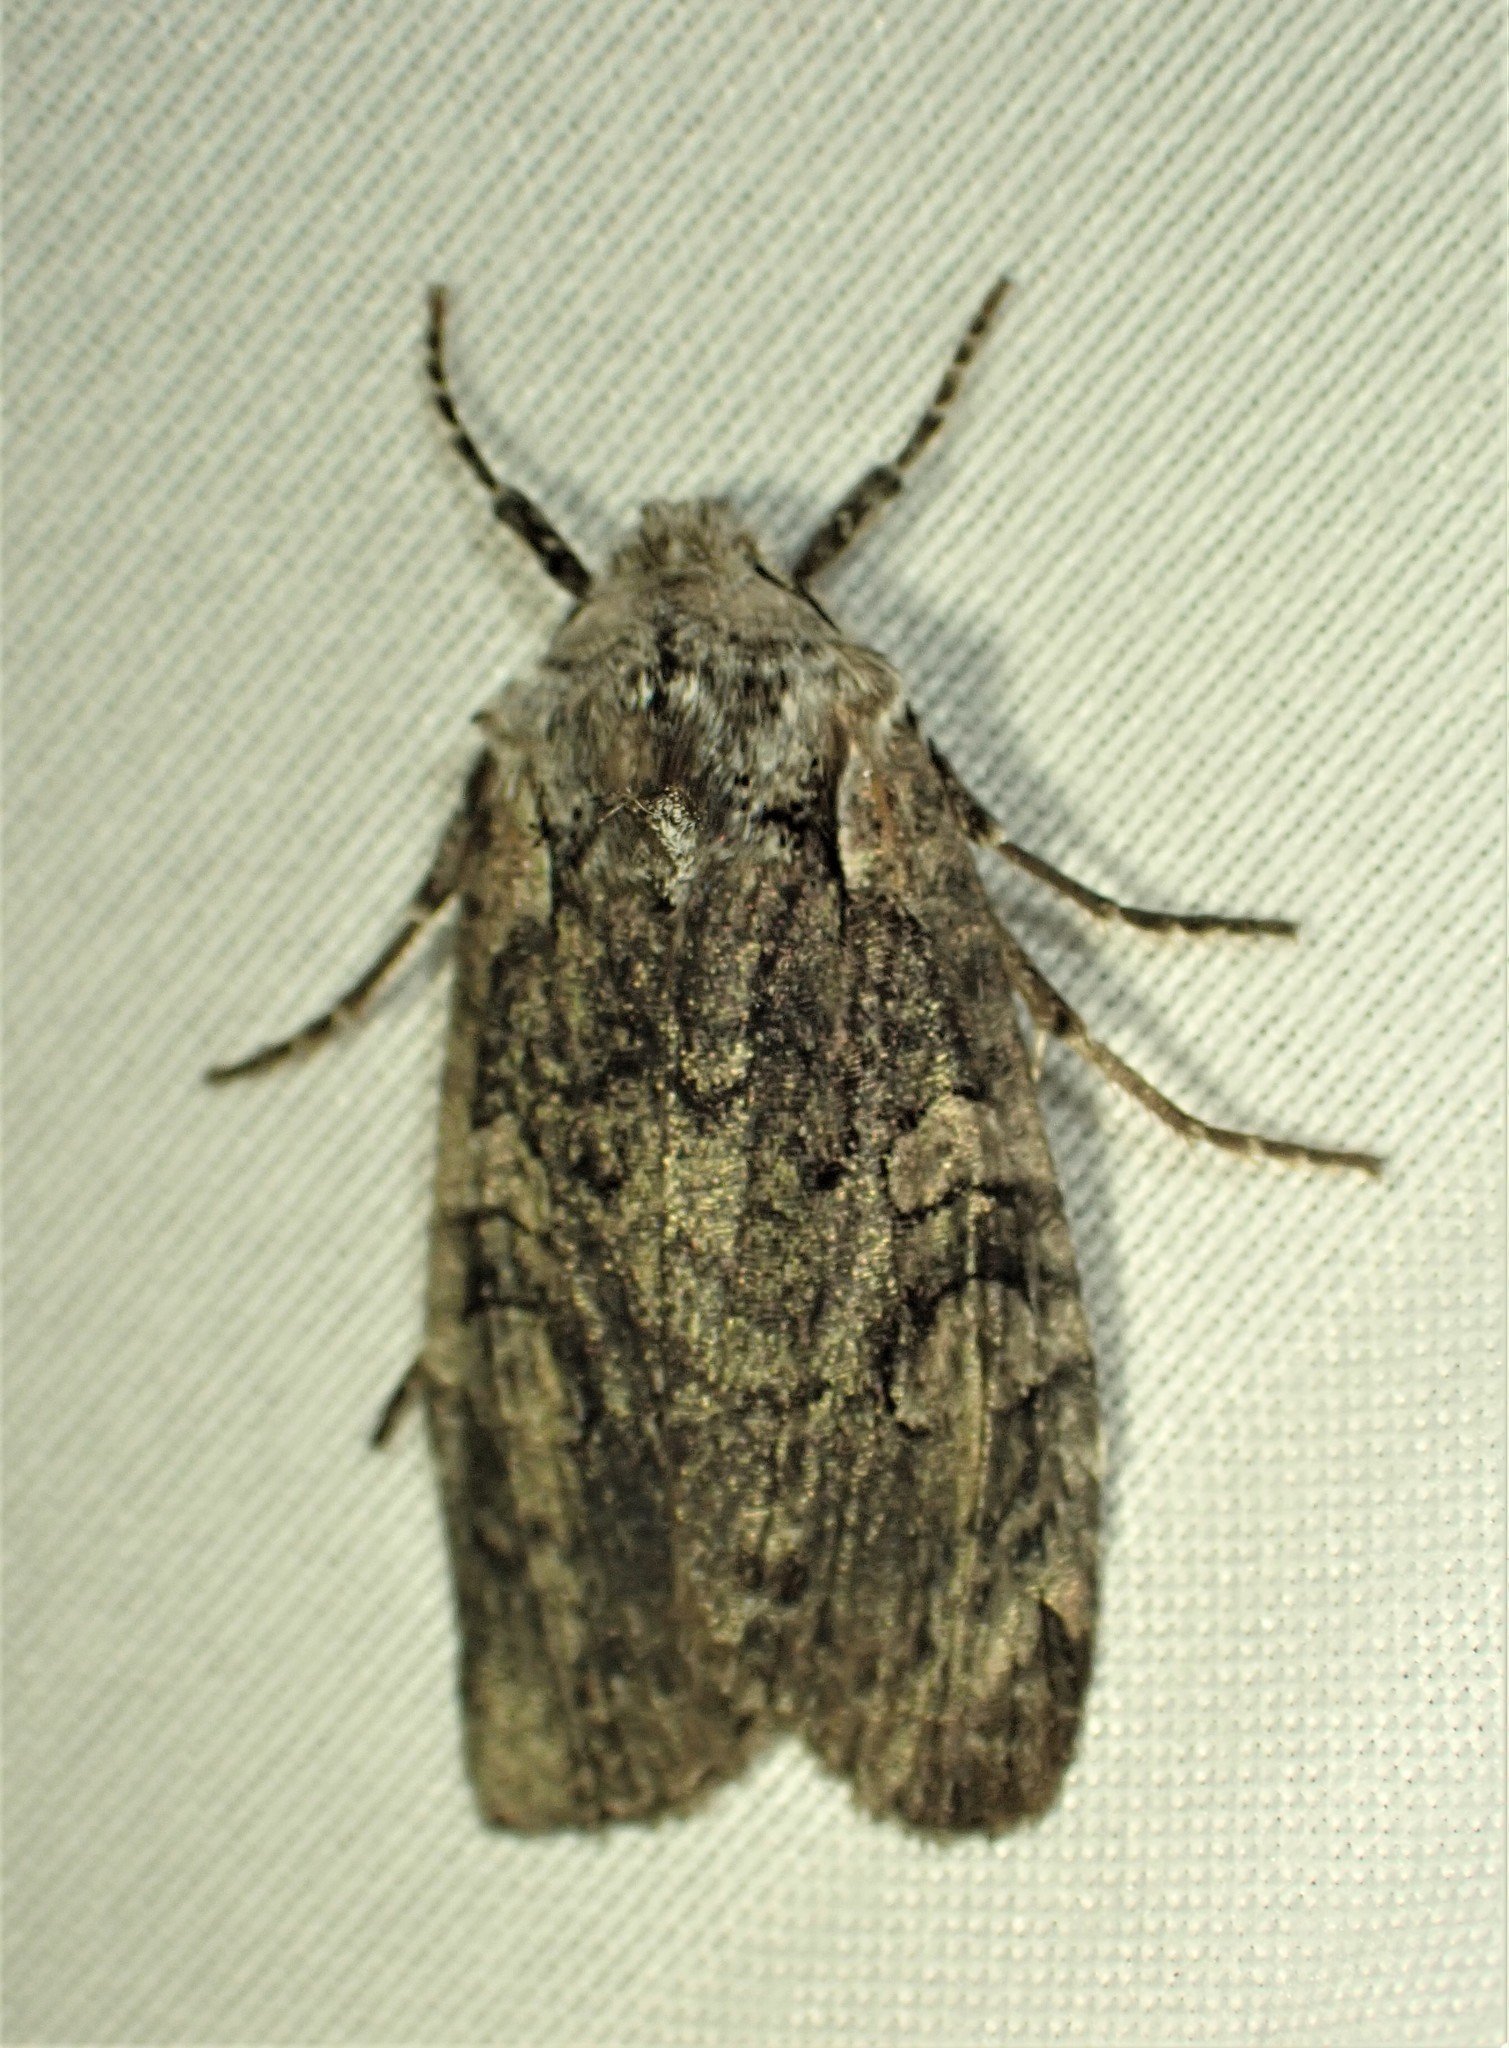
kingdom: Animalia
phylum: Arthropoda
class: Insecta
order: Lepidoptera
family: Noctuidae
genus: Lithophane
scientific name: Lithophane baileyi
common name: Bailey's pinion moth
